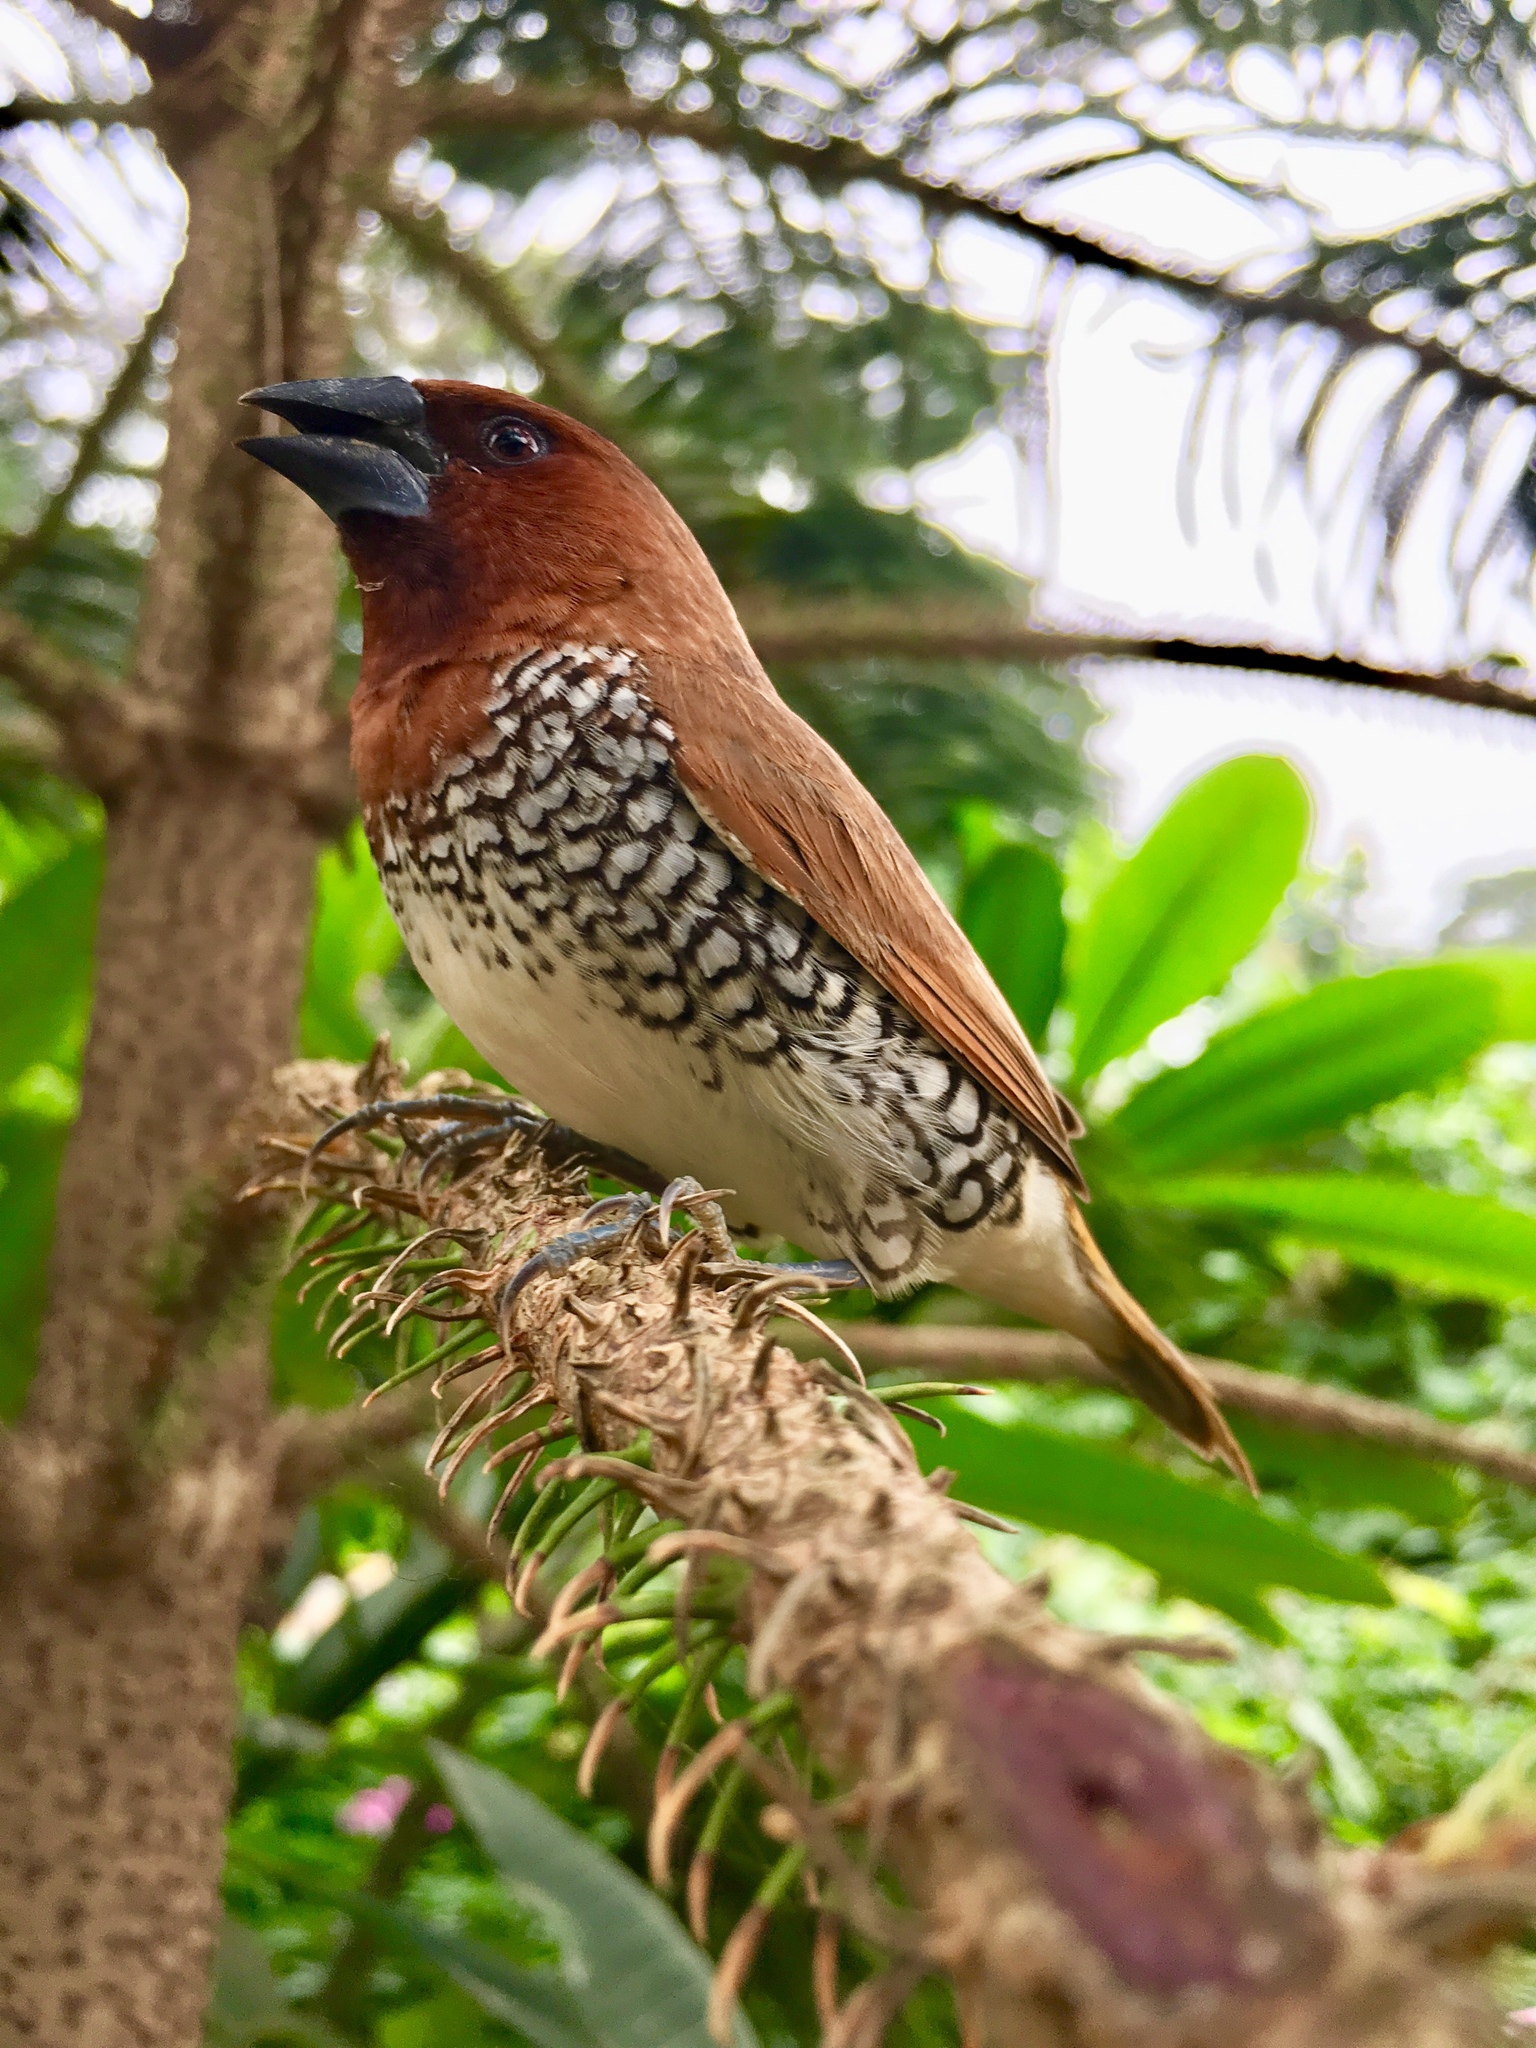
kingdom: Animalia
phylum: Chordata
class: Aves
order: Passeriformes
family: Estrildidae
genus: Lonchura
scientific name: Lonchura punctulata
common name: Scaly-breasted munia
